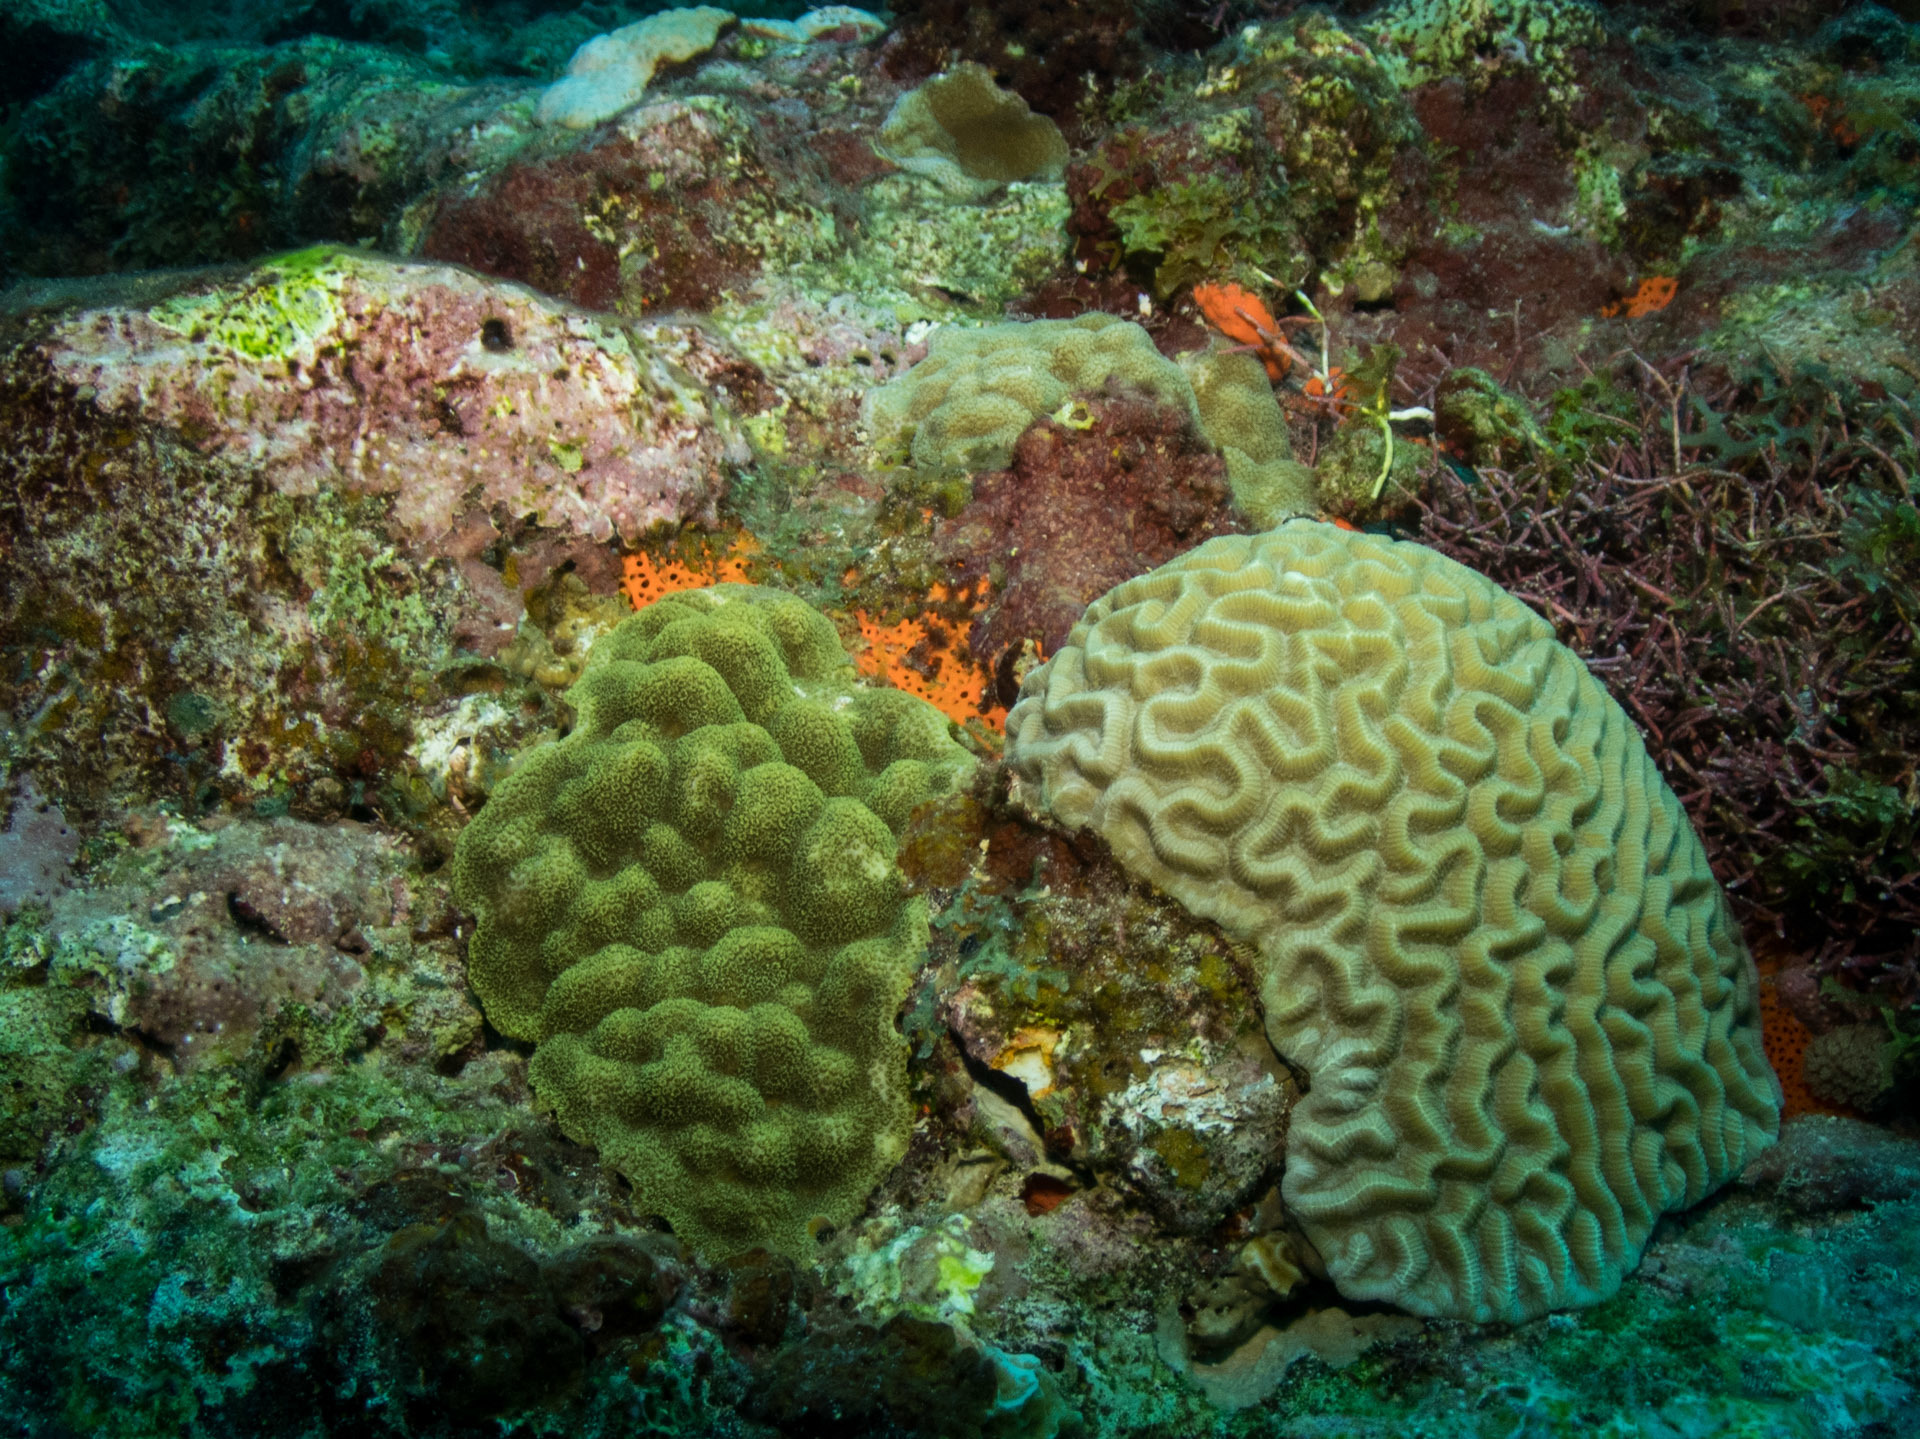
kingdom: Animalia
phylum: Cnidaria
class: Anthozoa
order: Scleractinia
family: Poritidae
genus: Porites
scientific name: Porites astreoides
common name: Mustard hill coral
